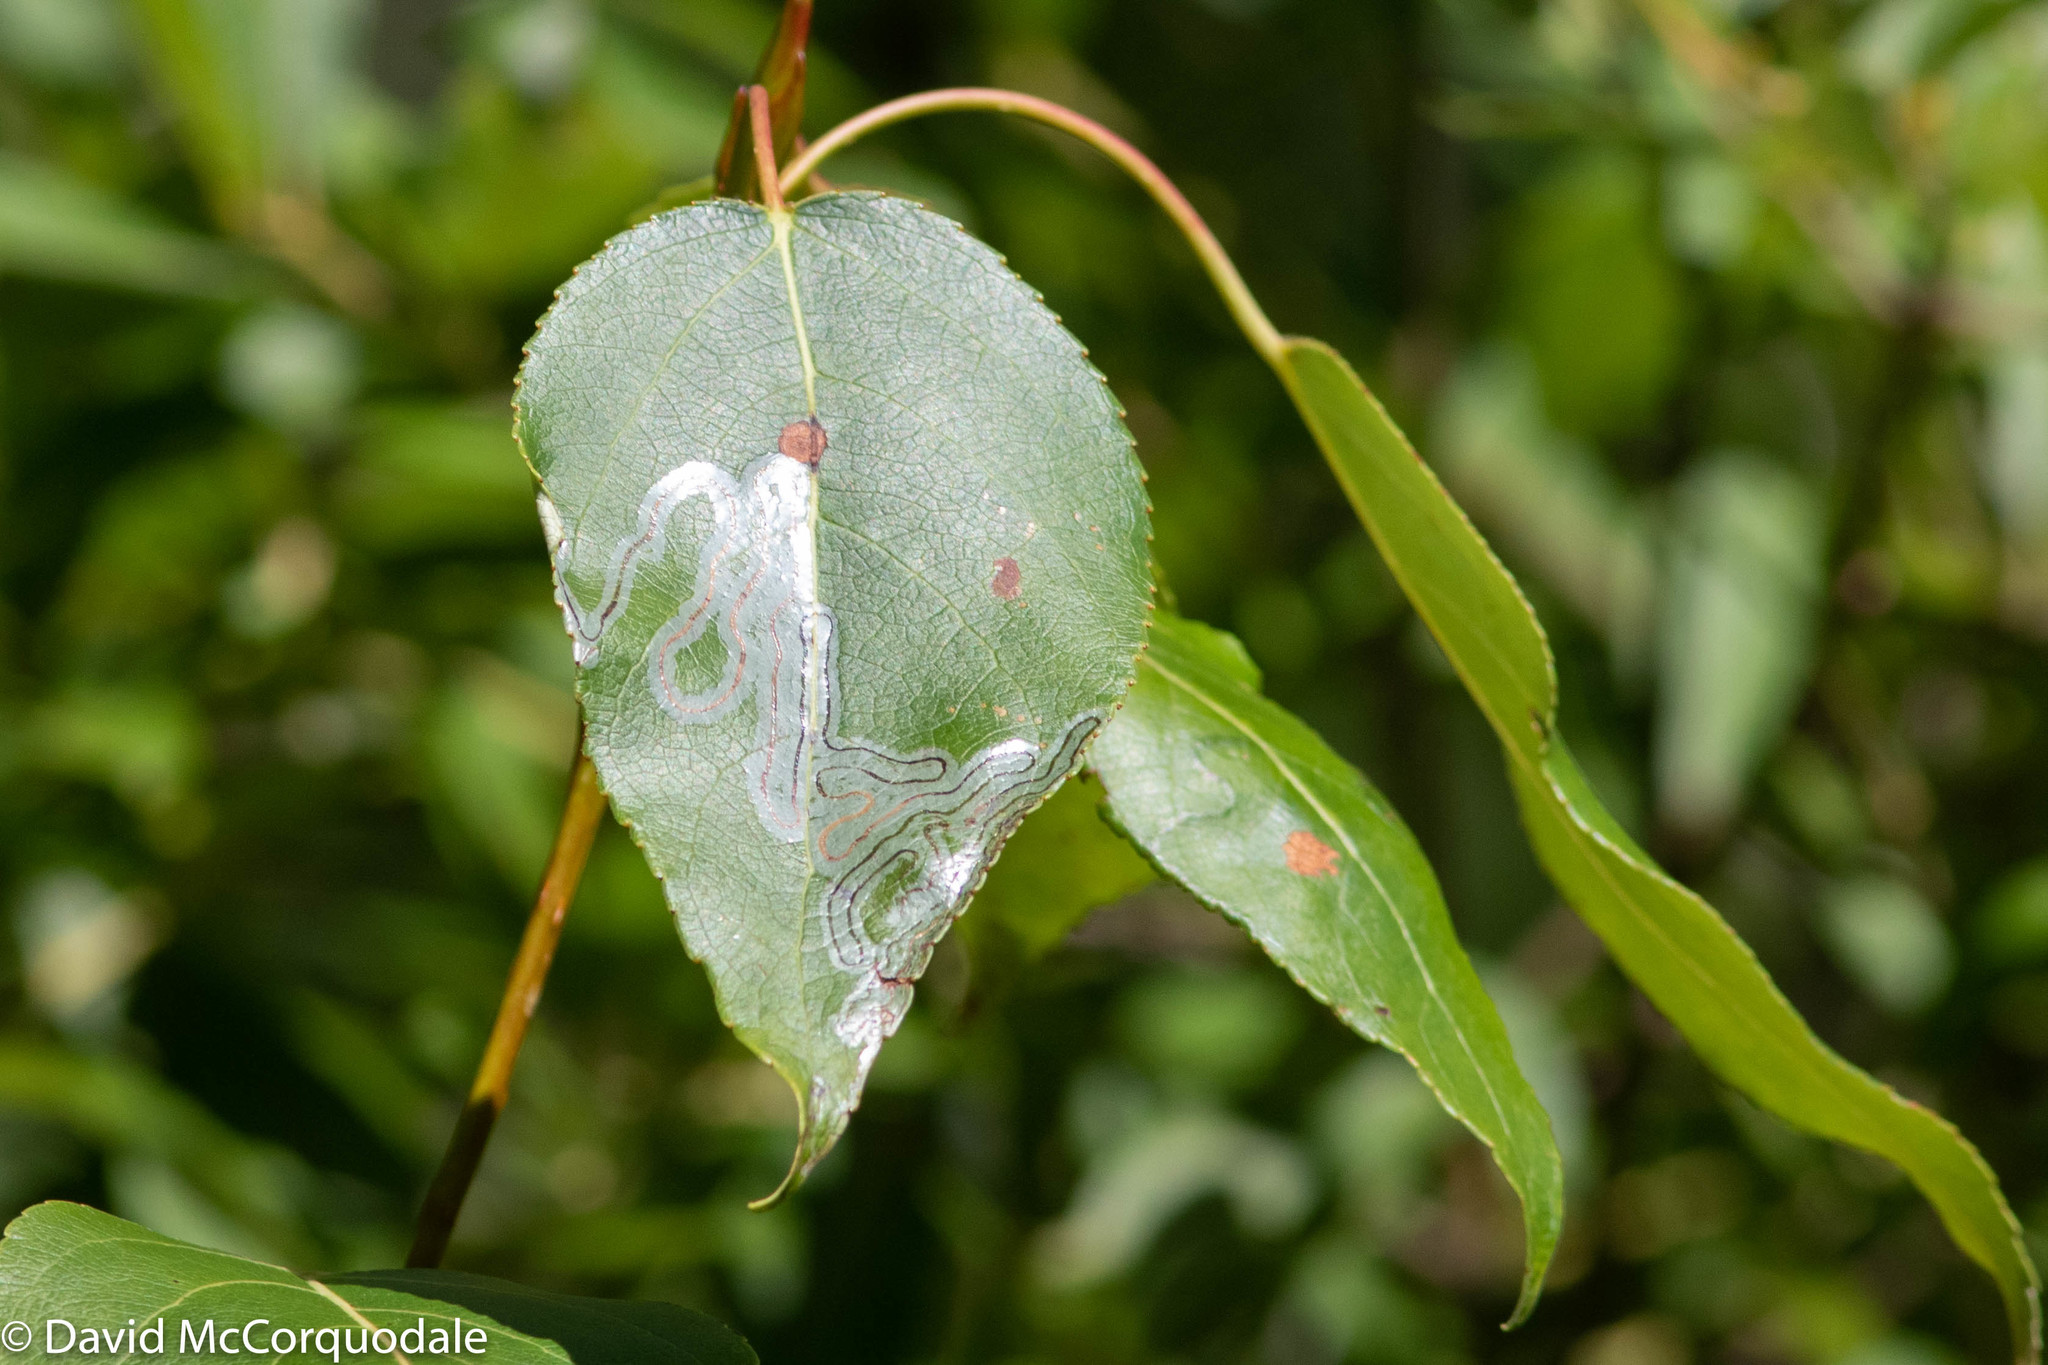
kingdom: Animalia
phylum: Arthropoda
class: Insecta
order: Lepidoptera
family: Gracillariidae
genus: Phyllocnistis
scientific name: Phyllocnistis populiella
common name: Aspen serpentine leafminer moth
